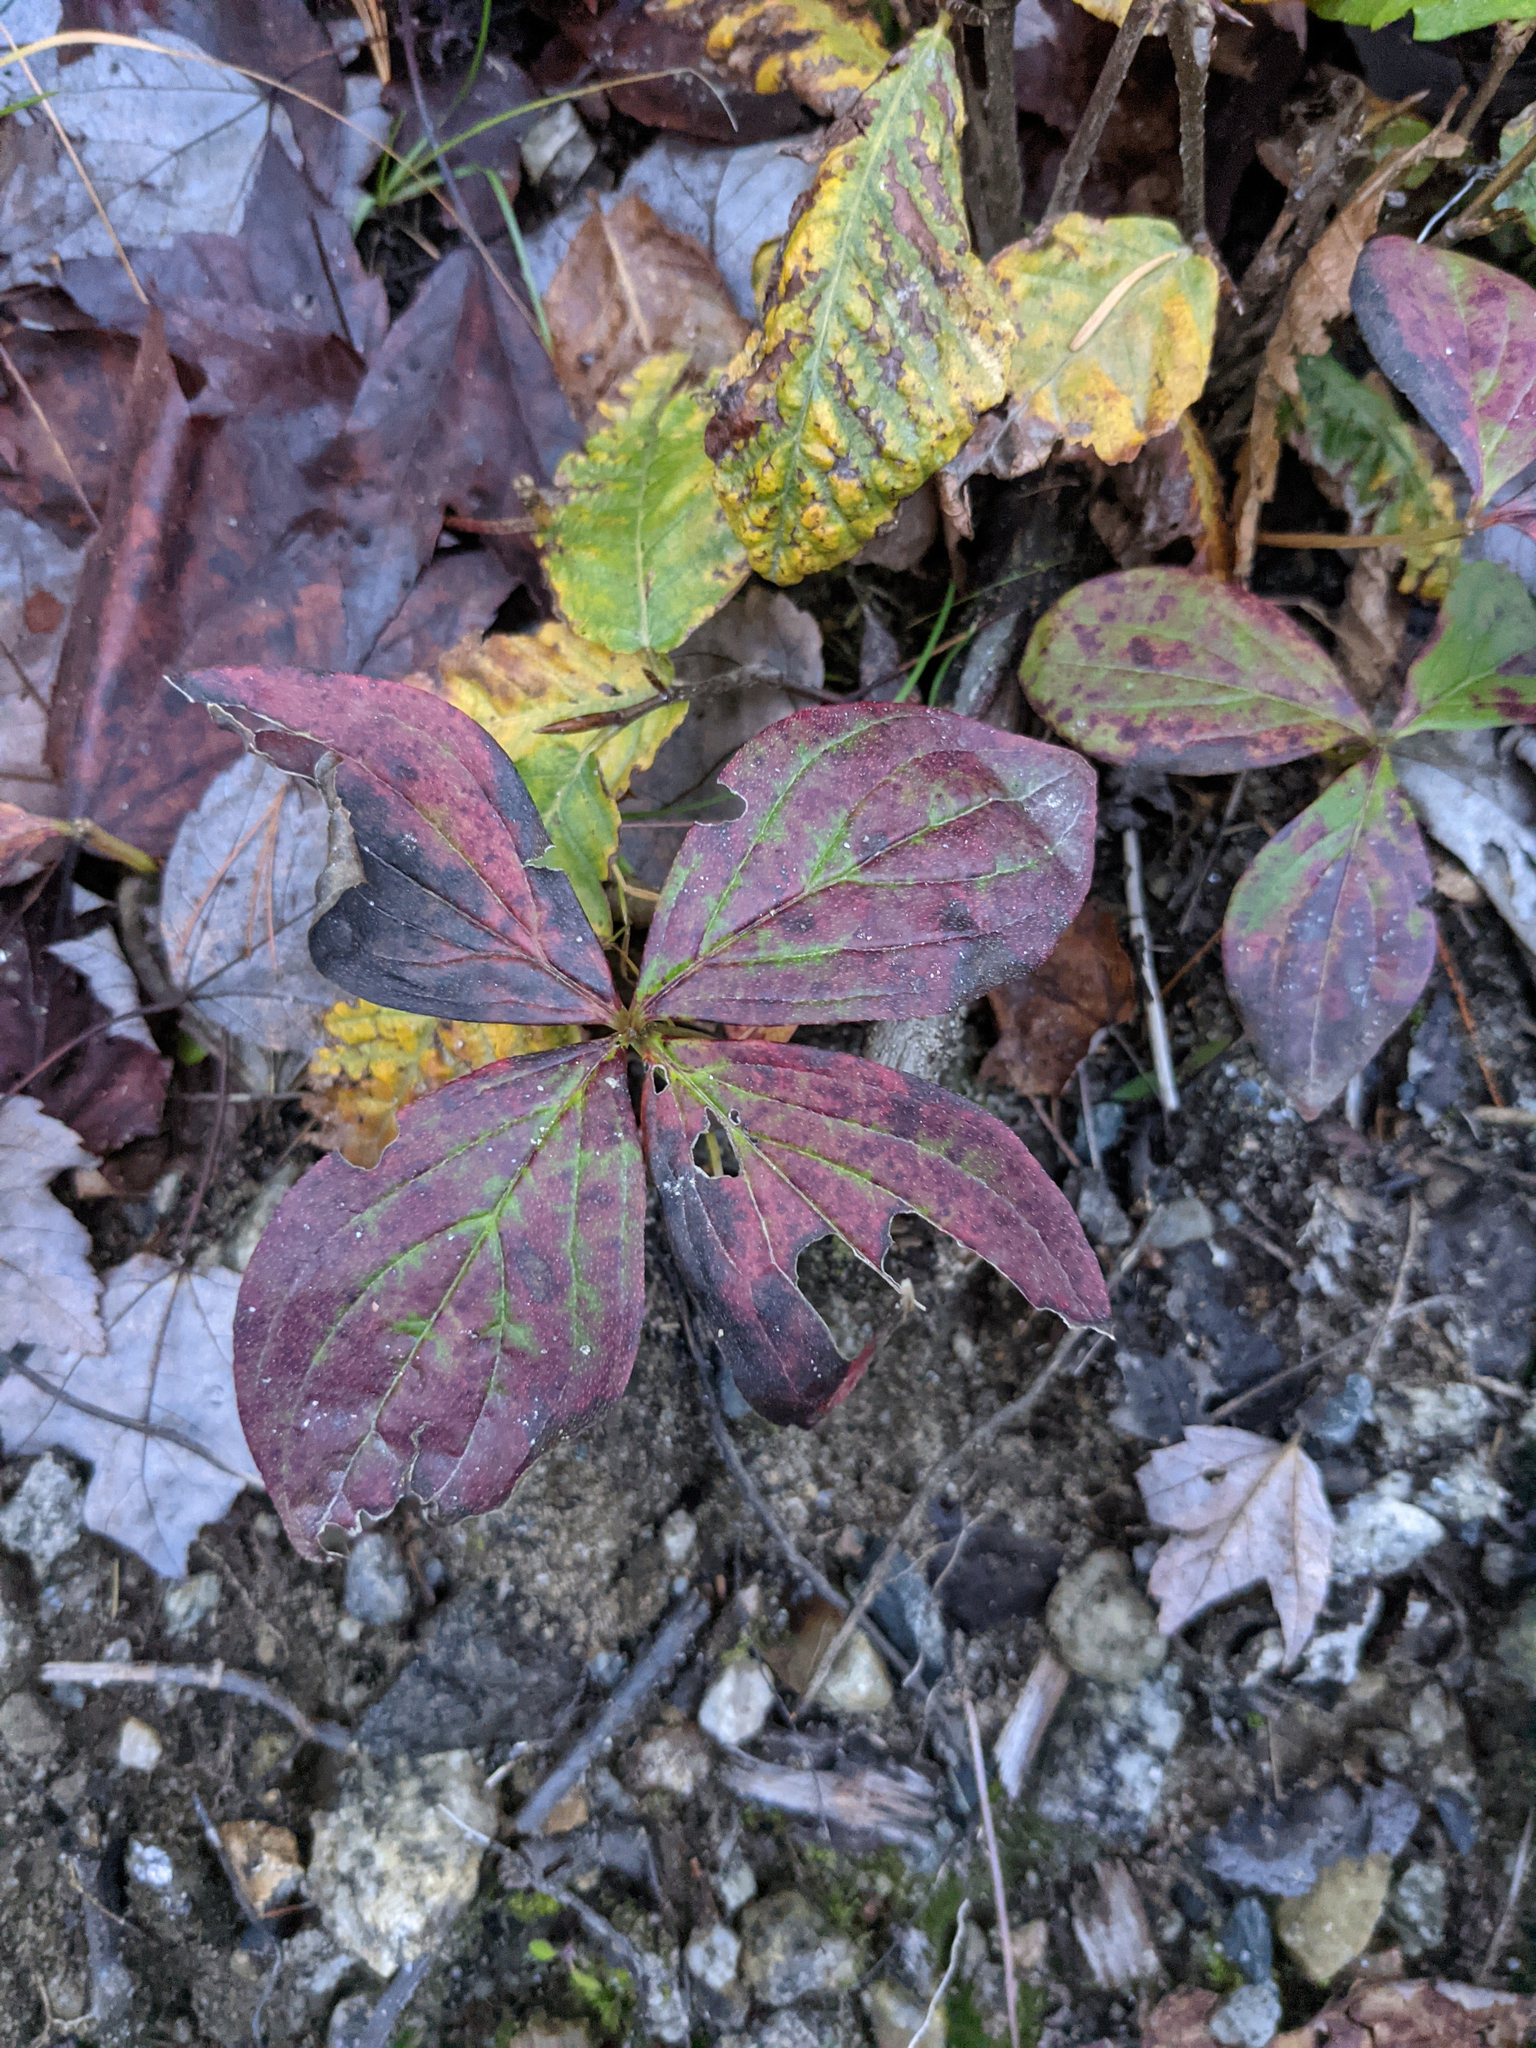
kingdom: Plantae
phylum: Tracheophyta
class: Magnoliopsida
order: Cornales
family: Cornaceae
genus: Cornus
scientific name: Cornus canadensis
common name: Creeping dogwood
